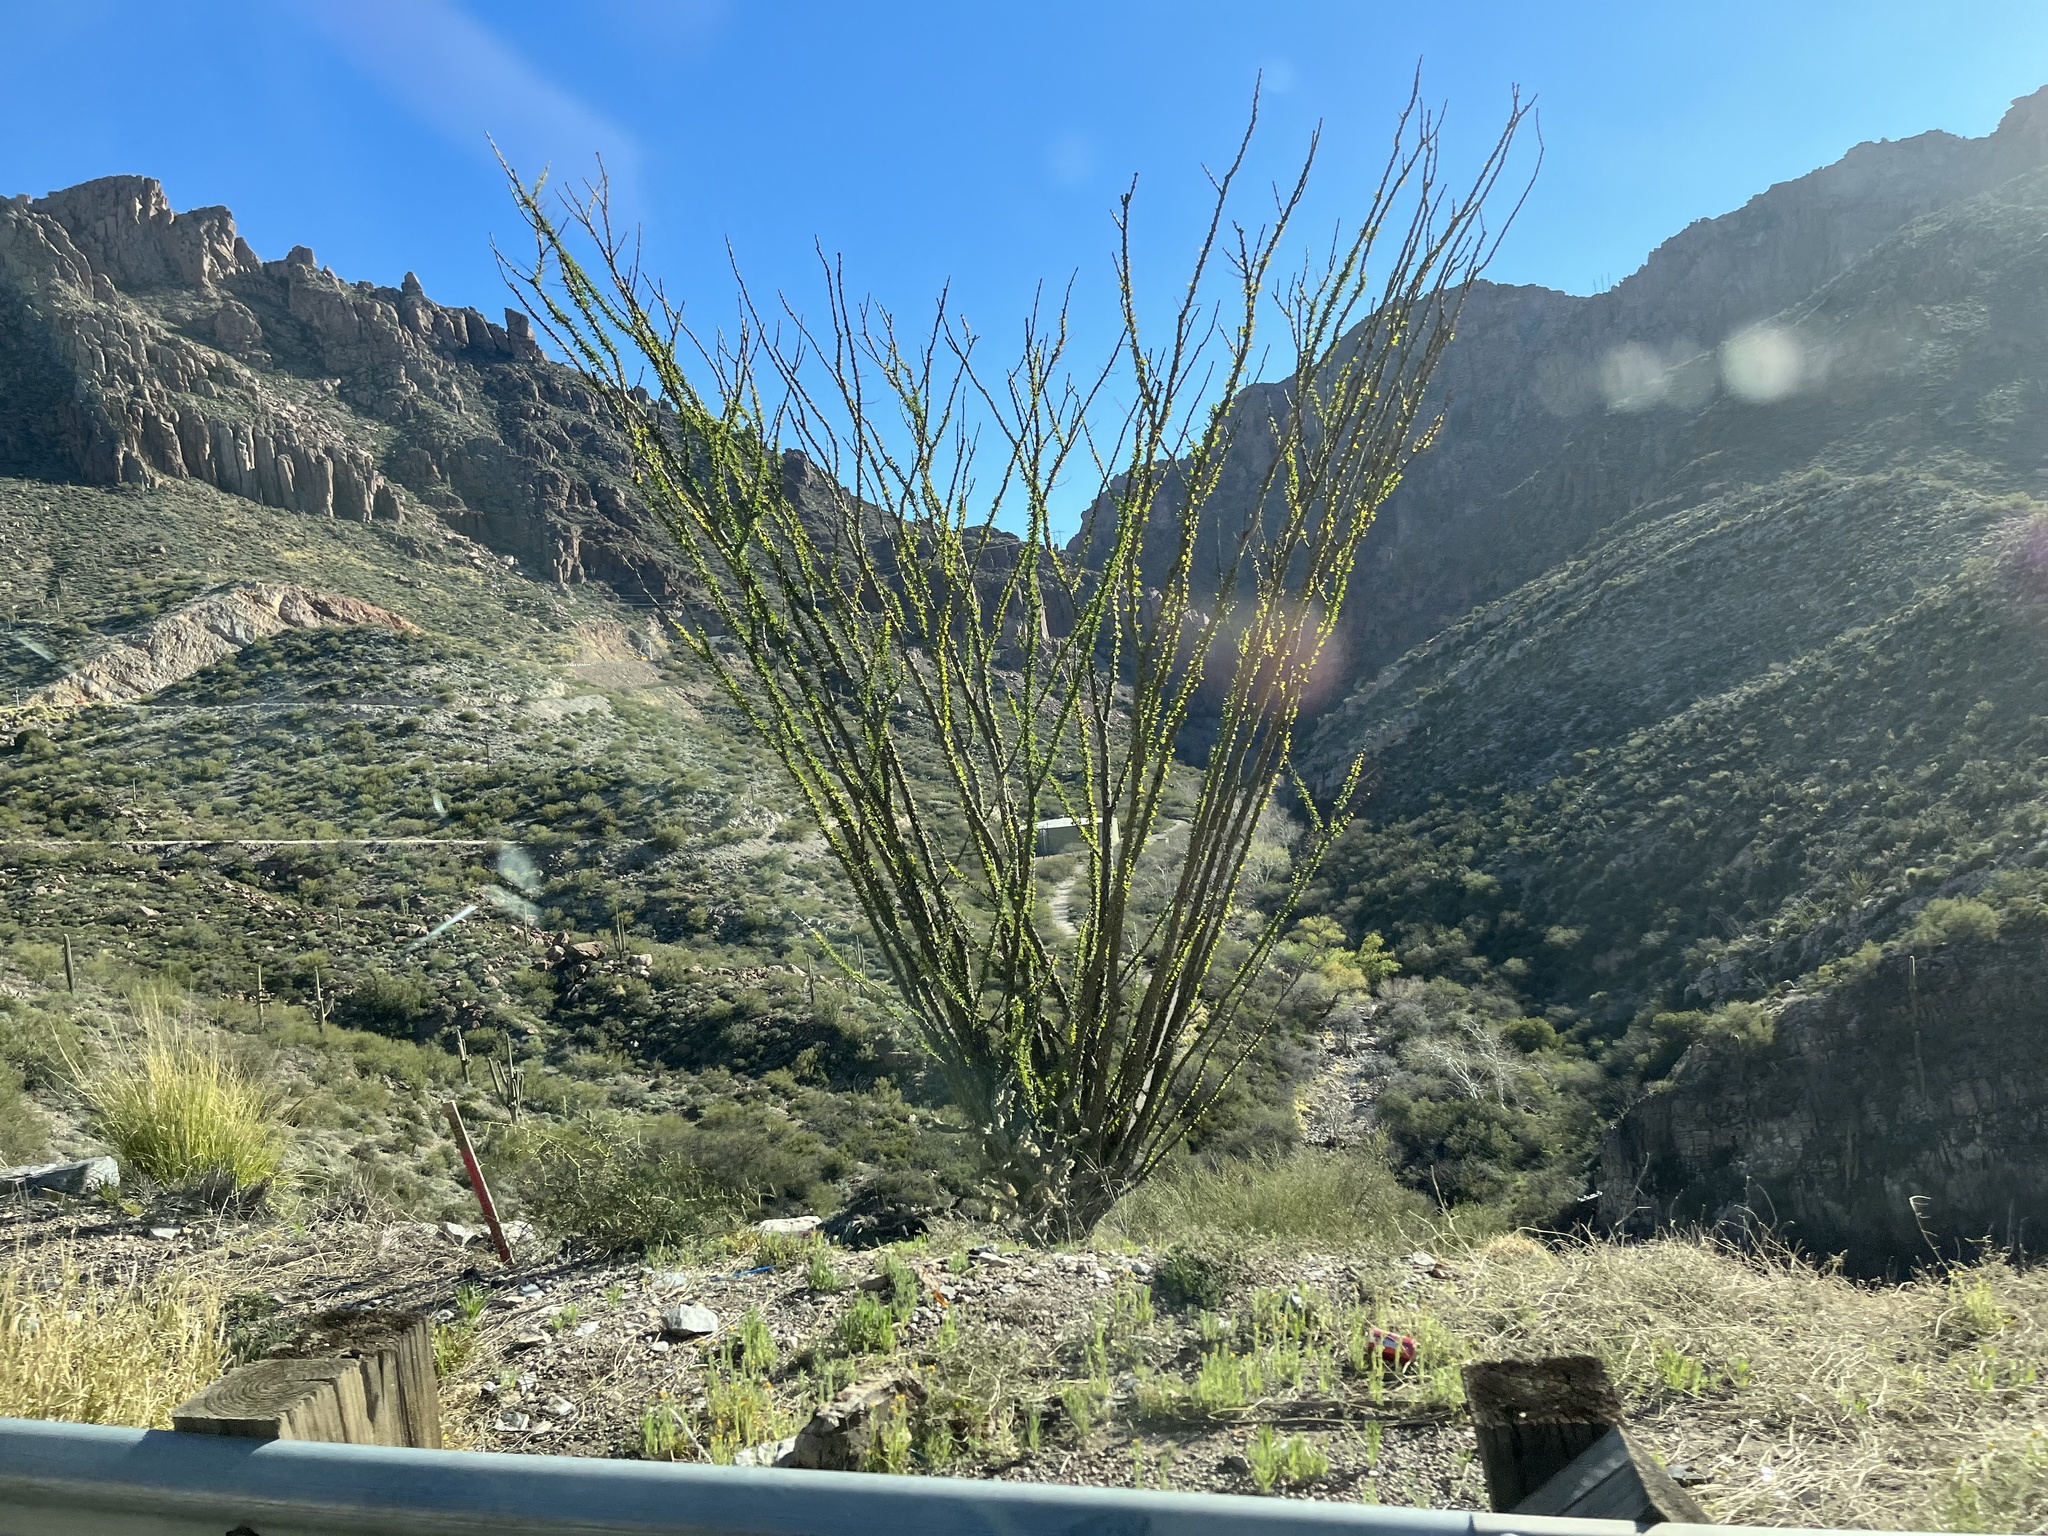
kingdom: Plantae
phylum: Tracheophyta
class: Magnoliopsida
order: Ericales
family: Fouquieriaceae
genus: Fouquieria
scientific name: Fouquieria splendens
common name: Vine-cactus
